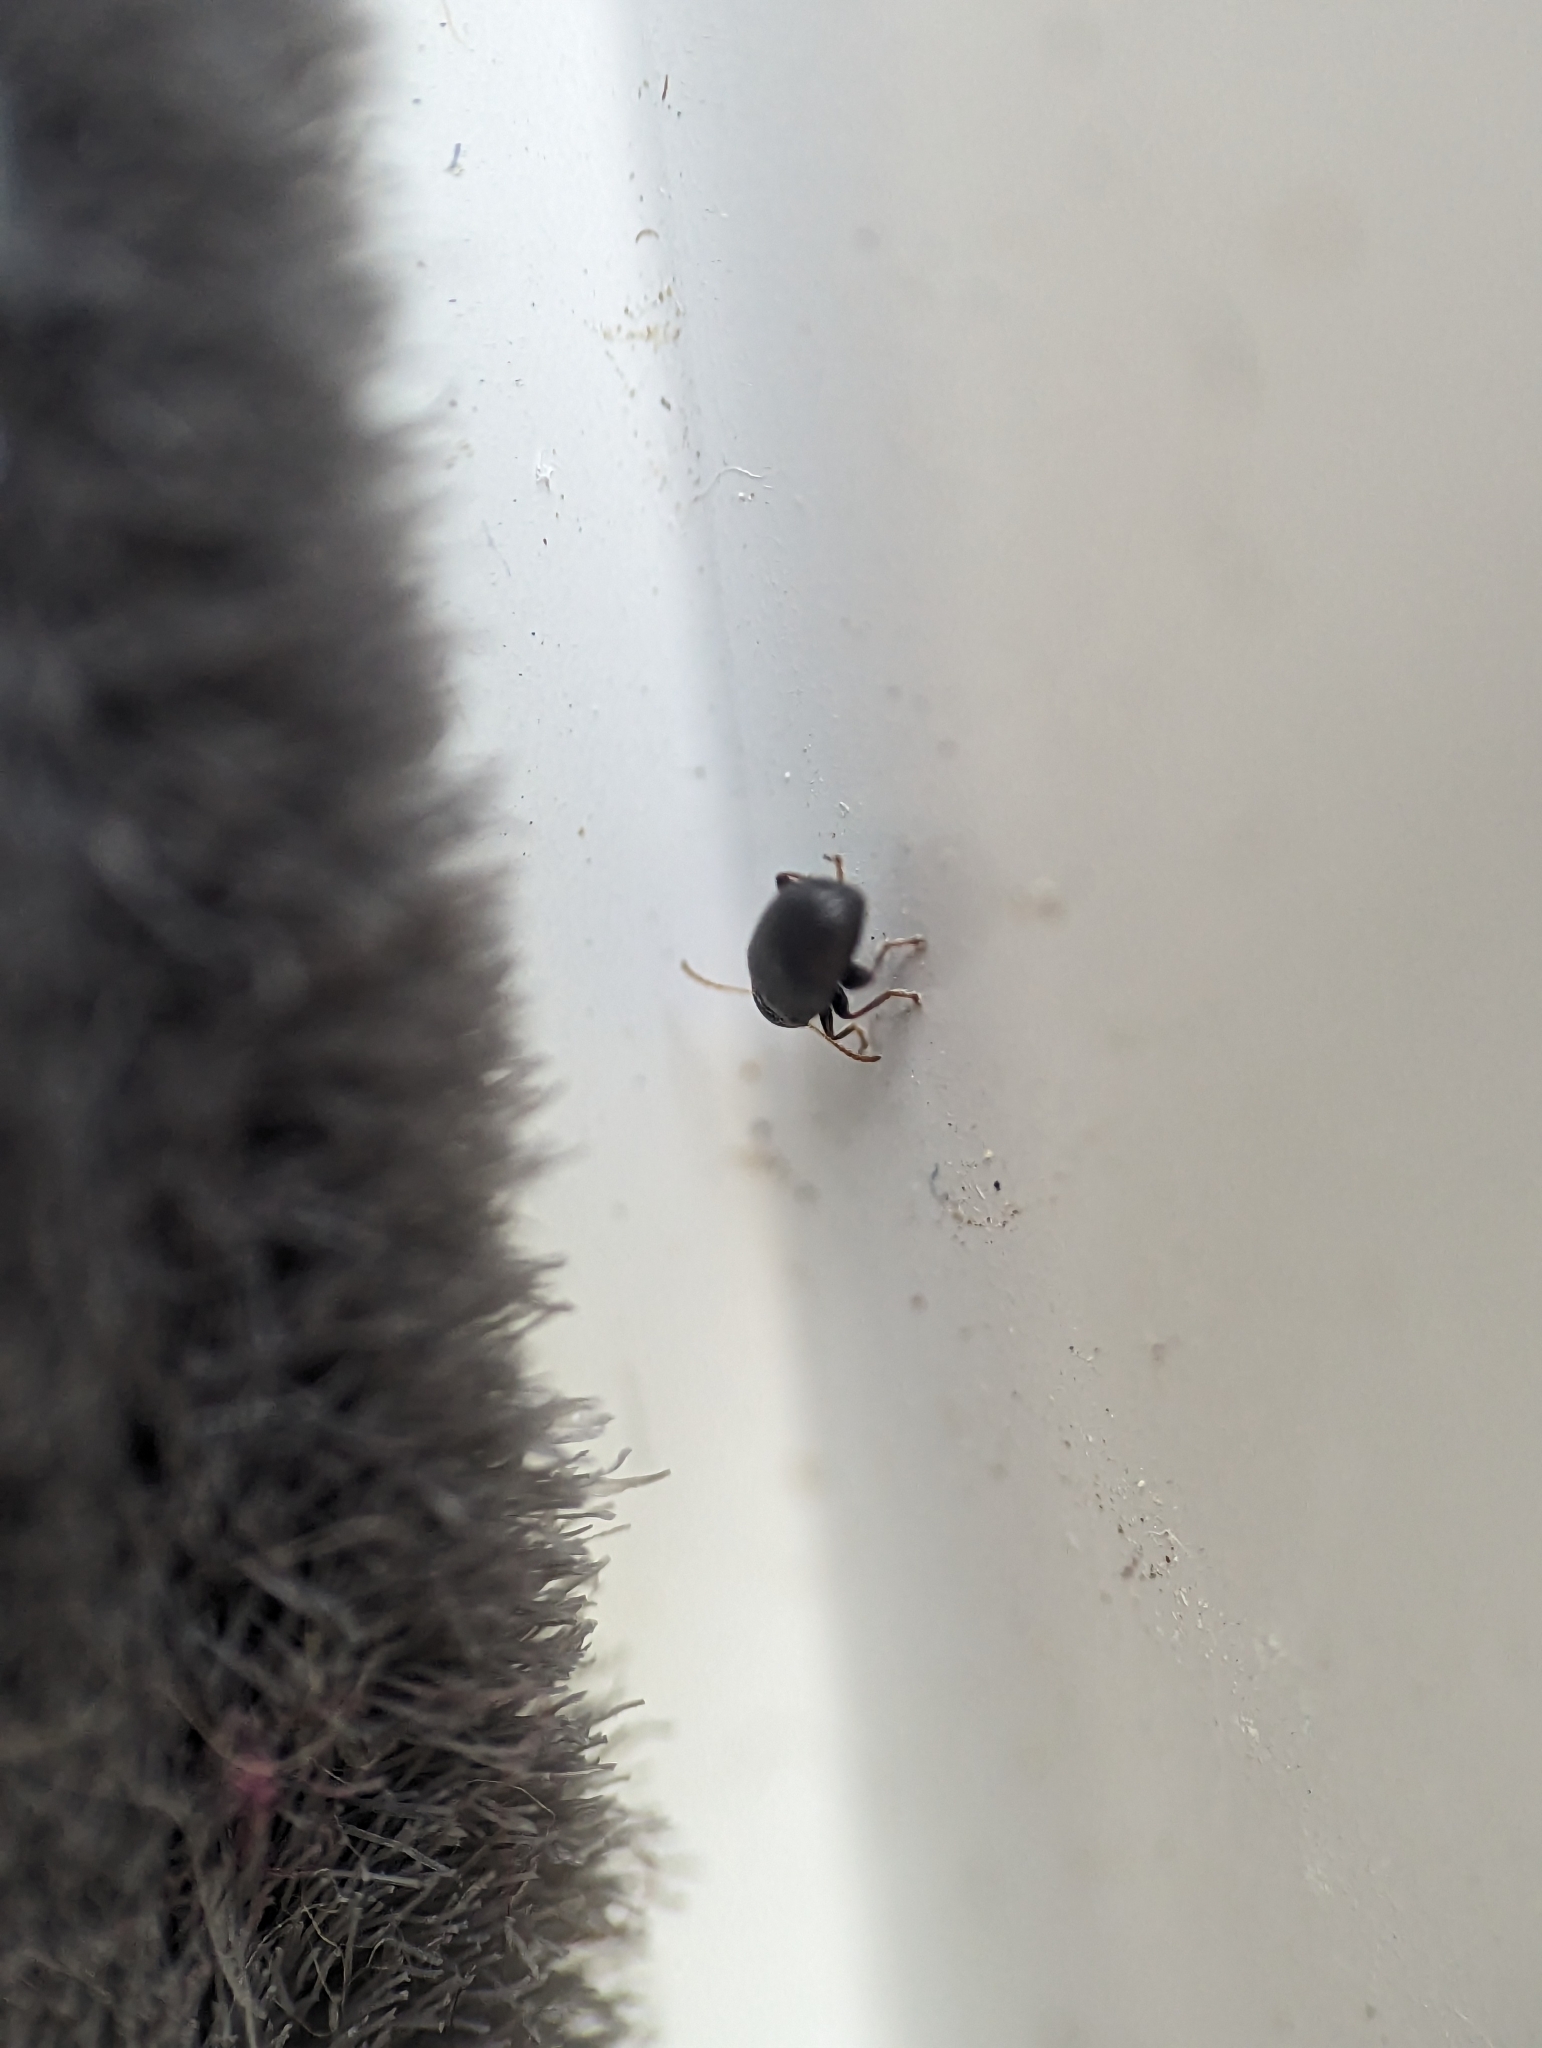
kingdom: Animalia
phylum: Arthropoda
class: Insecta
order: Coleoptera
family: Chrysomelidae
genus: Epitrix
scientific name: Epitrix fuscula
